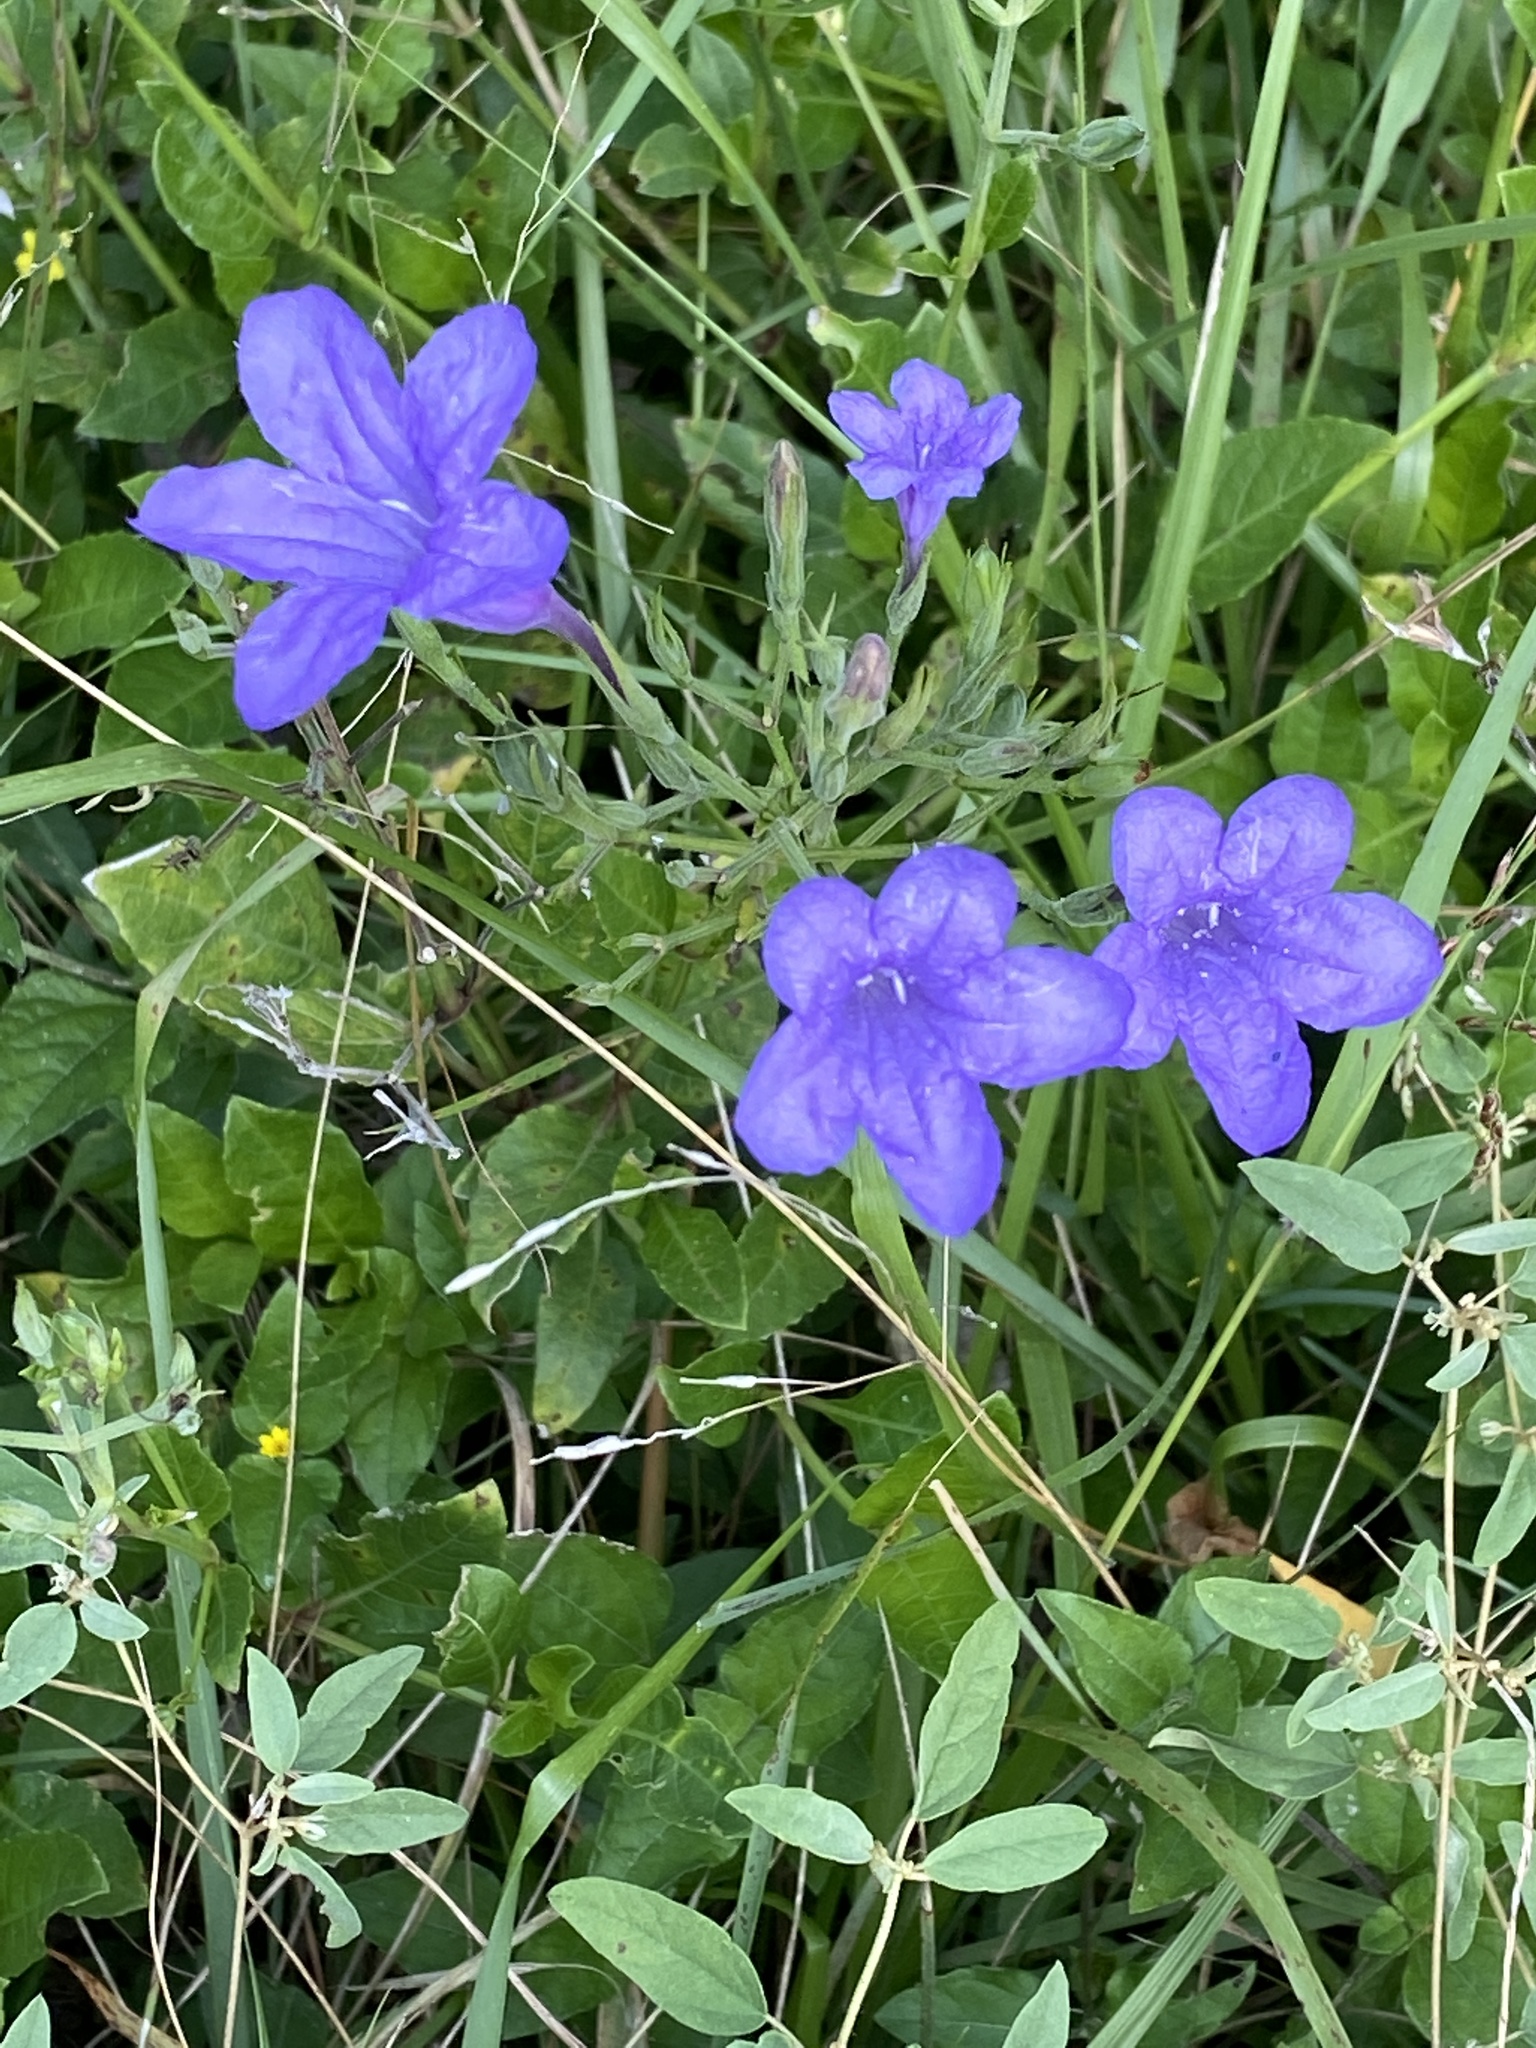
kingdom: Plantae
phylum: Tracheophyta
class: Magnoliopsida
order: Lamiales
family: Acanthaceae
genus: Ruellia
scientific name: Ruellia ciliatiflora
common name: Hairyflower wild petunia
